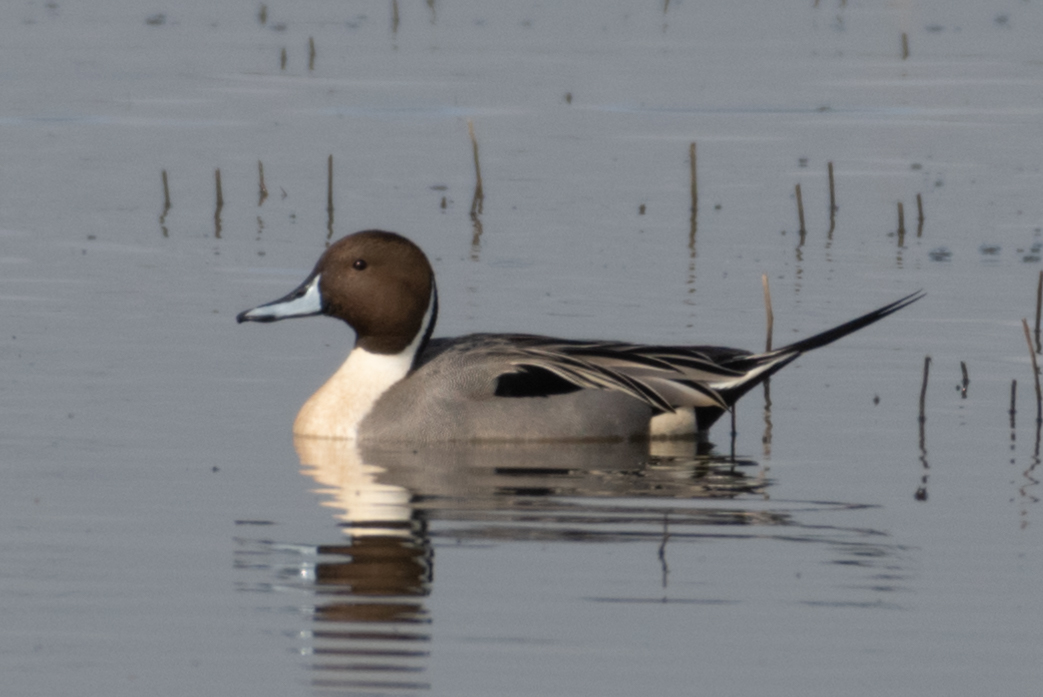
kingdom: Animalia
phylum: Chordata
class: Aves
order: Anseriformes
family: Anatidae
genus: Anas
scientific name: Anas acuta
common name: Northern pintail
